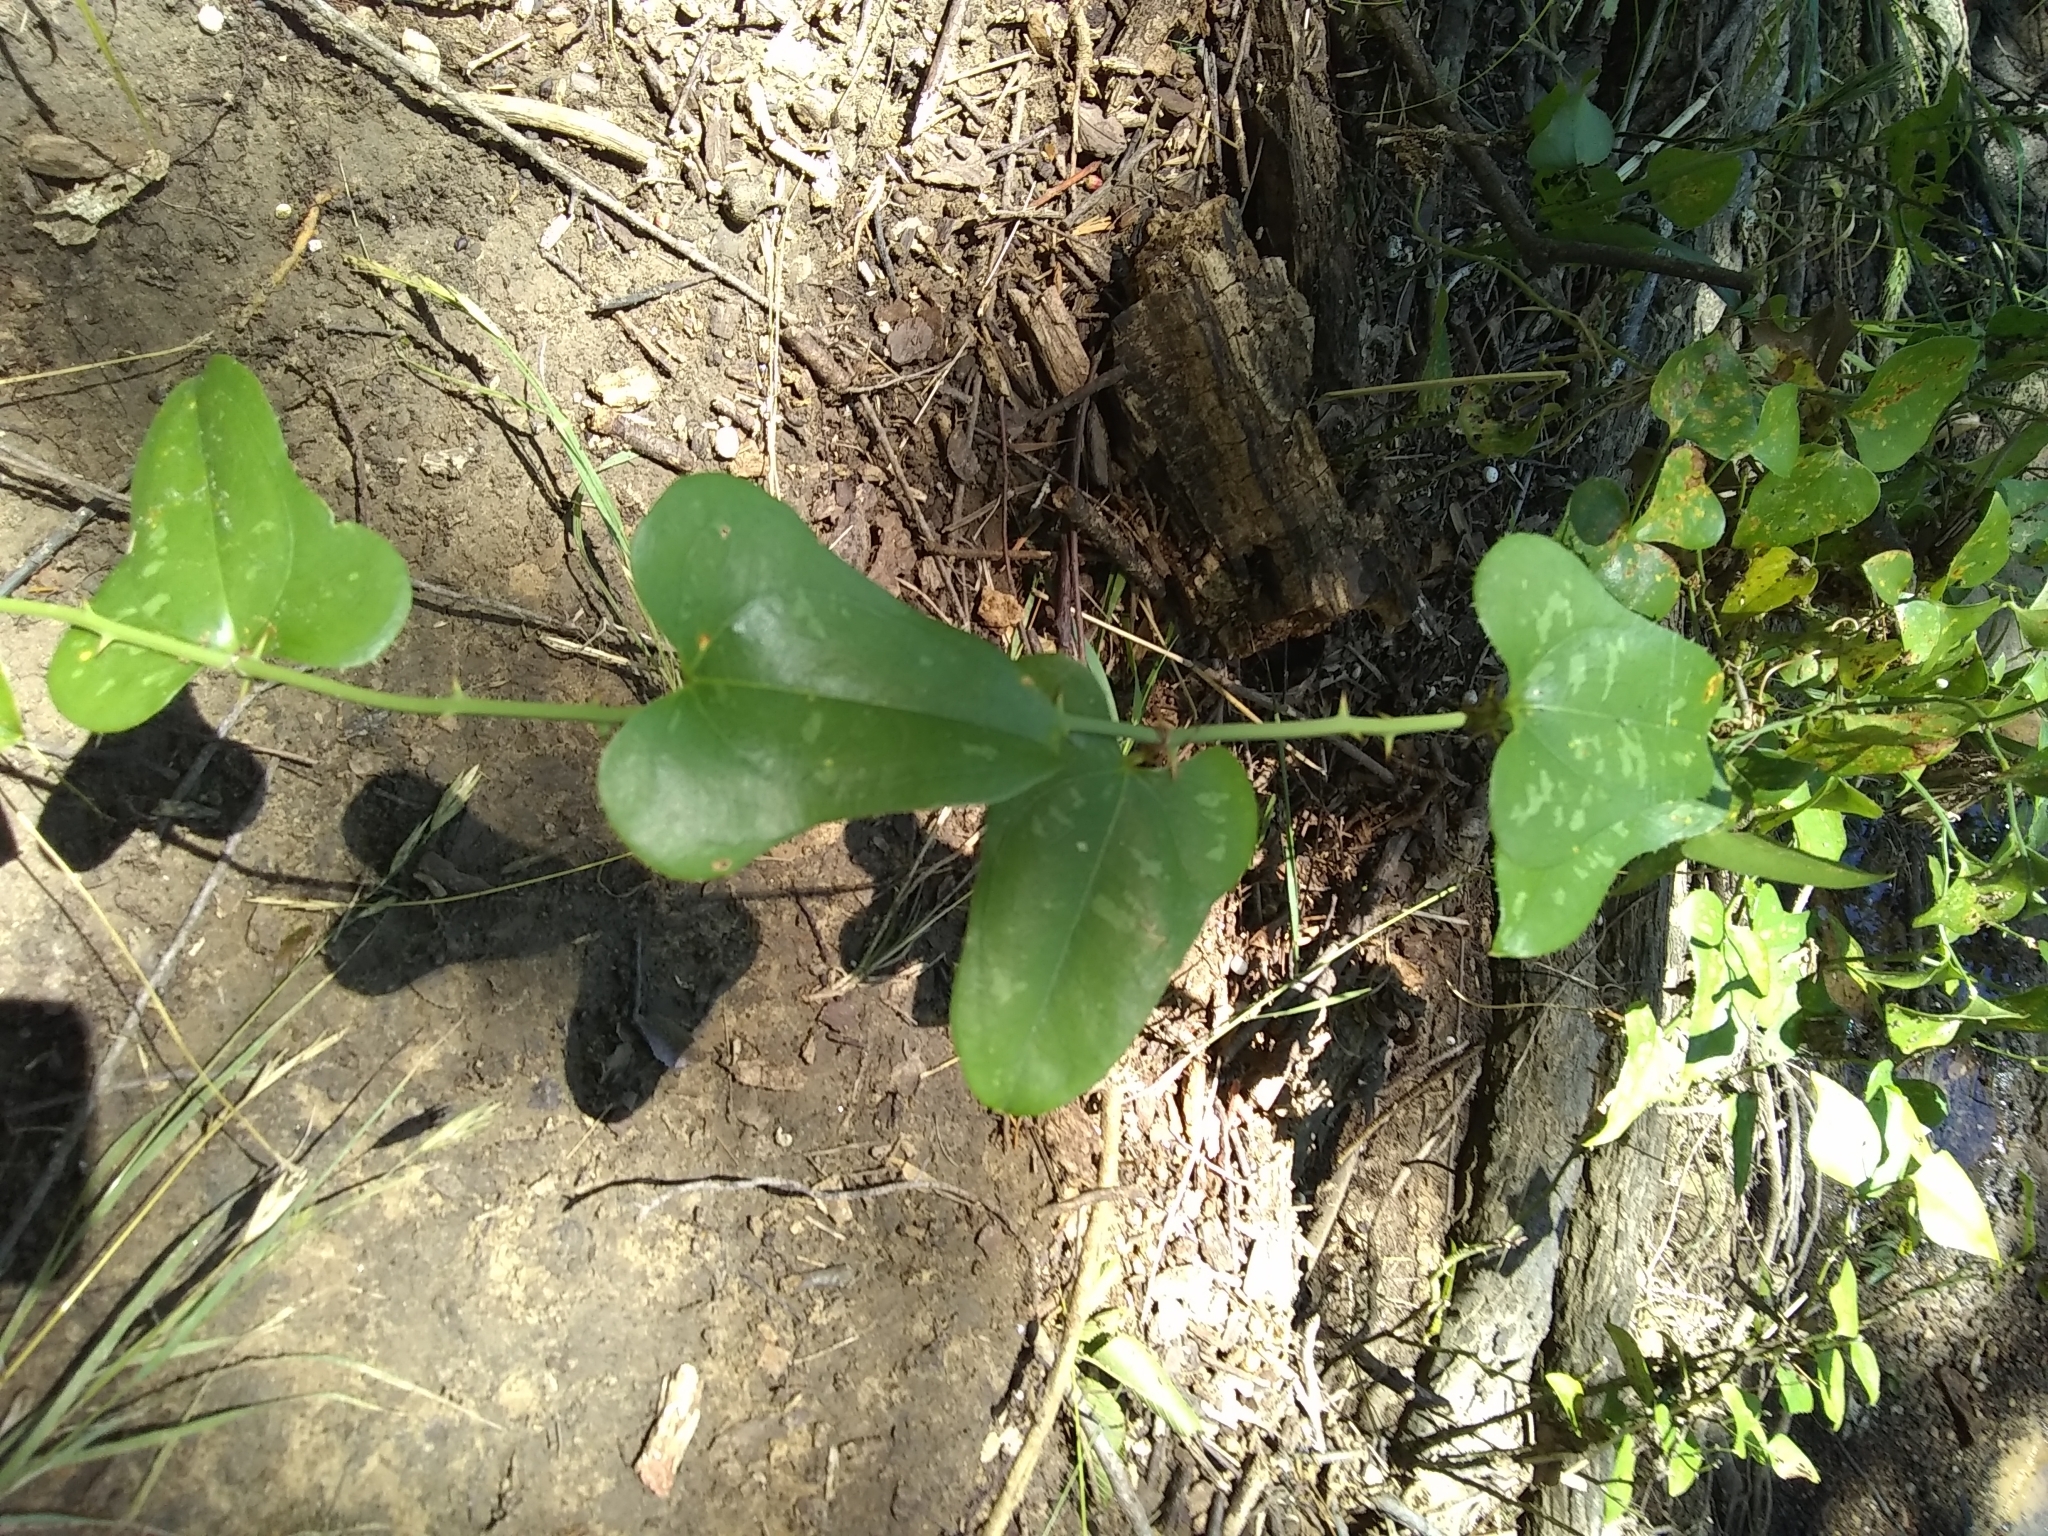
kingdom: Plantae
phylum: Tracheophyta
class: Liliopsida
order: Liliales
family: Smilacaceae
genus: Smilax
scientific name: Smilax bona-nox
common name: Catbrier
